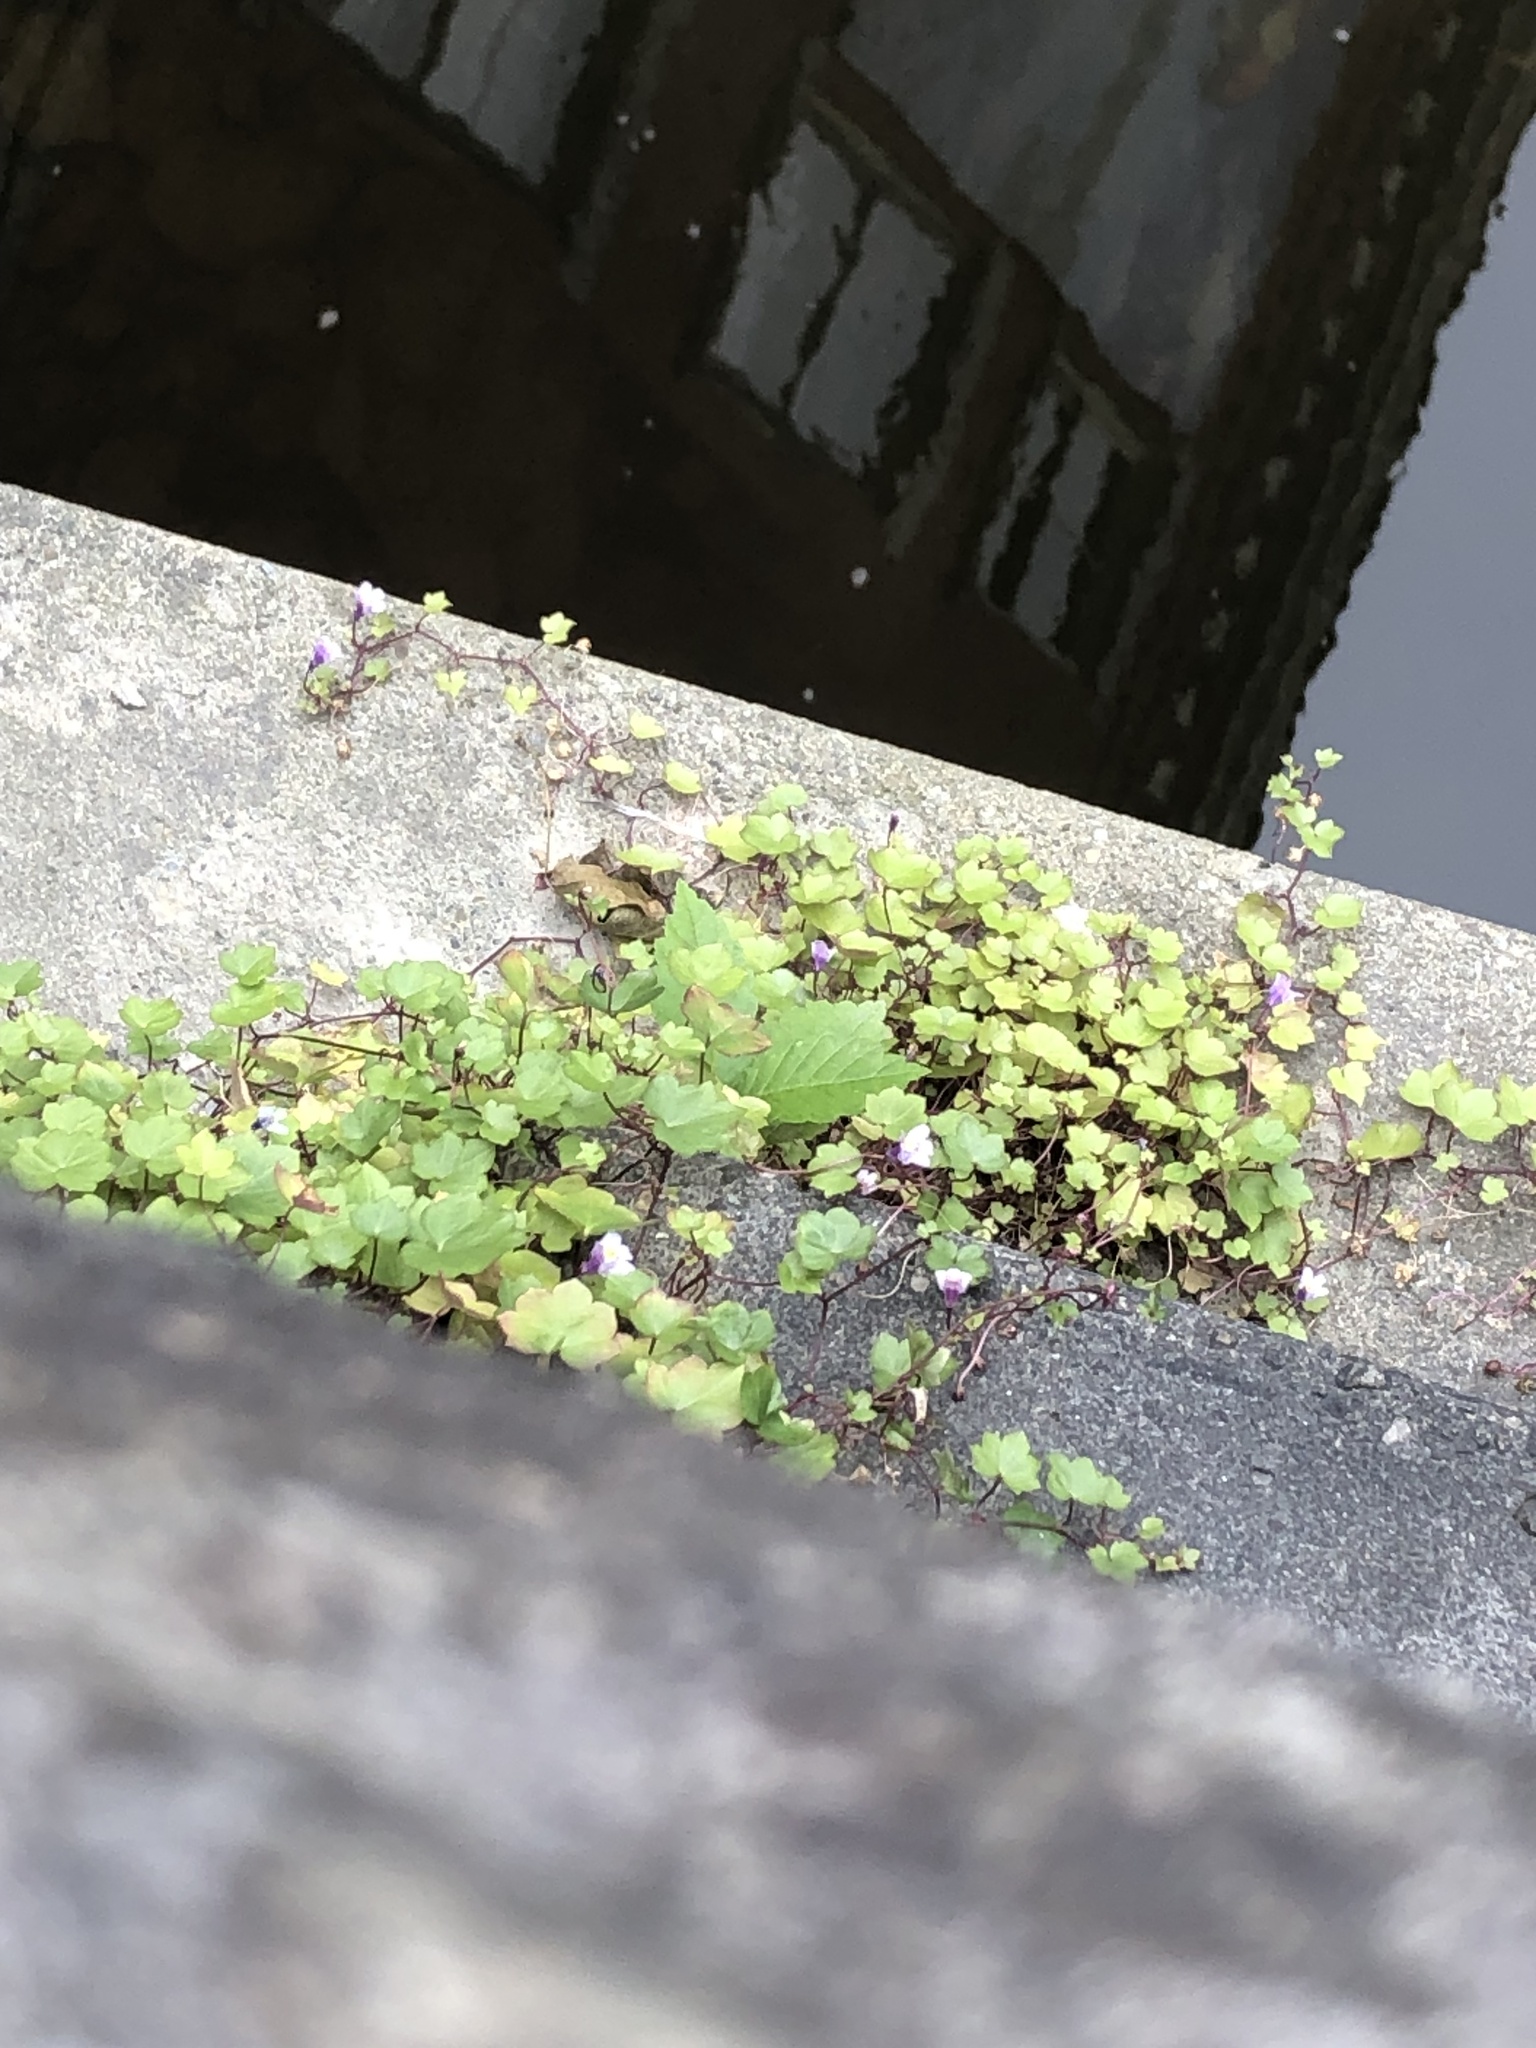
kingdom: Plantae
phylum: Tracheophyta
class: Magnoliopsida
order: Lamiales
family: Plantaginaceae
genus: Cymbalaria
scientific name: Cymbalaria muralis
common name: Ivy-leaved toadflax
